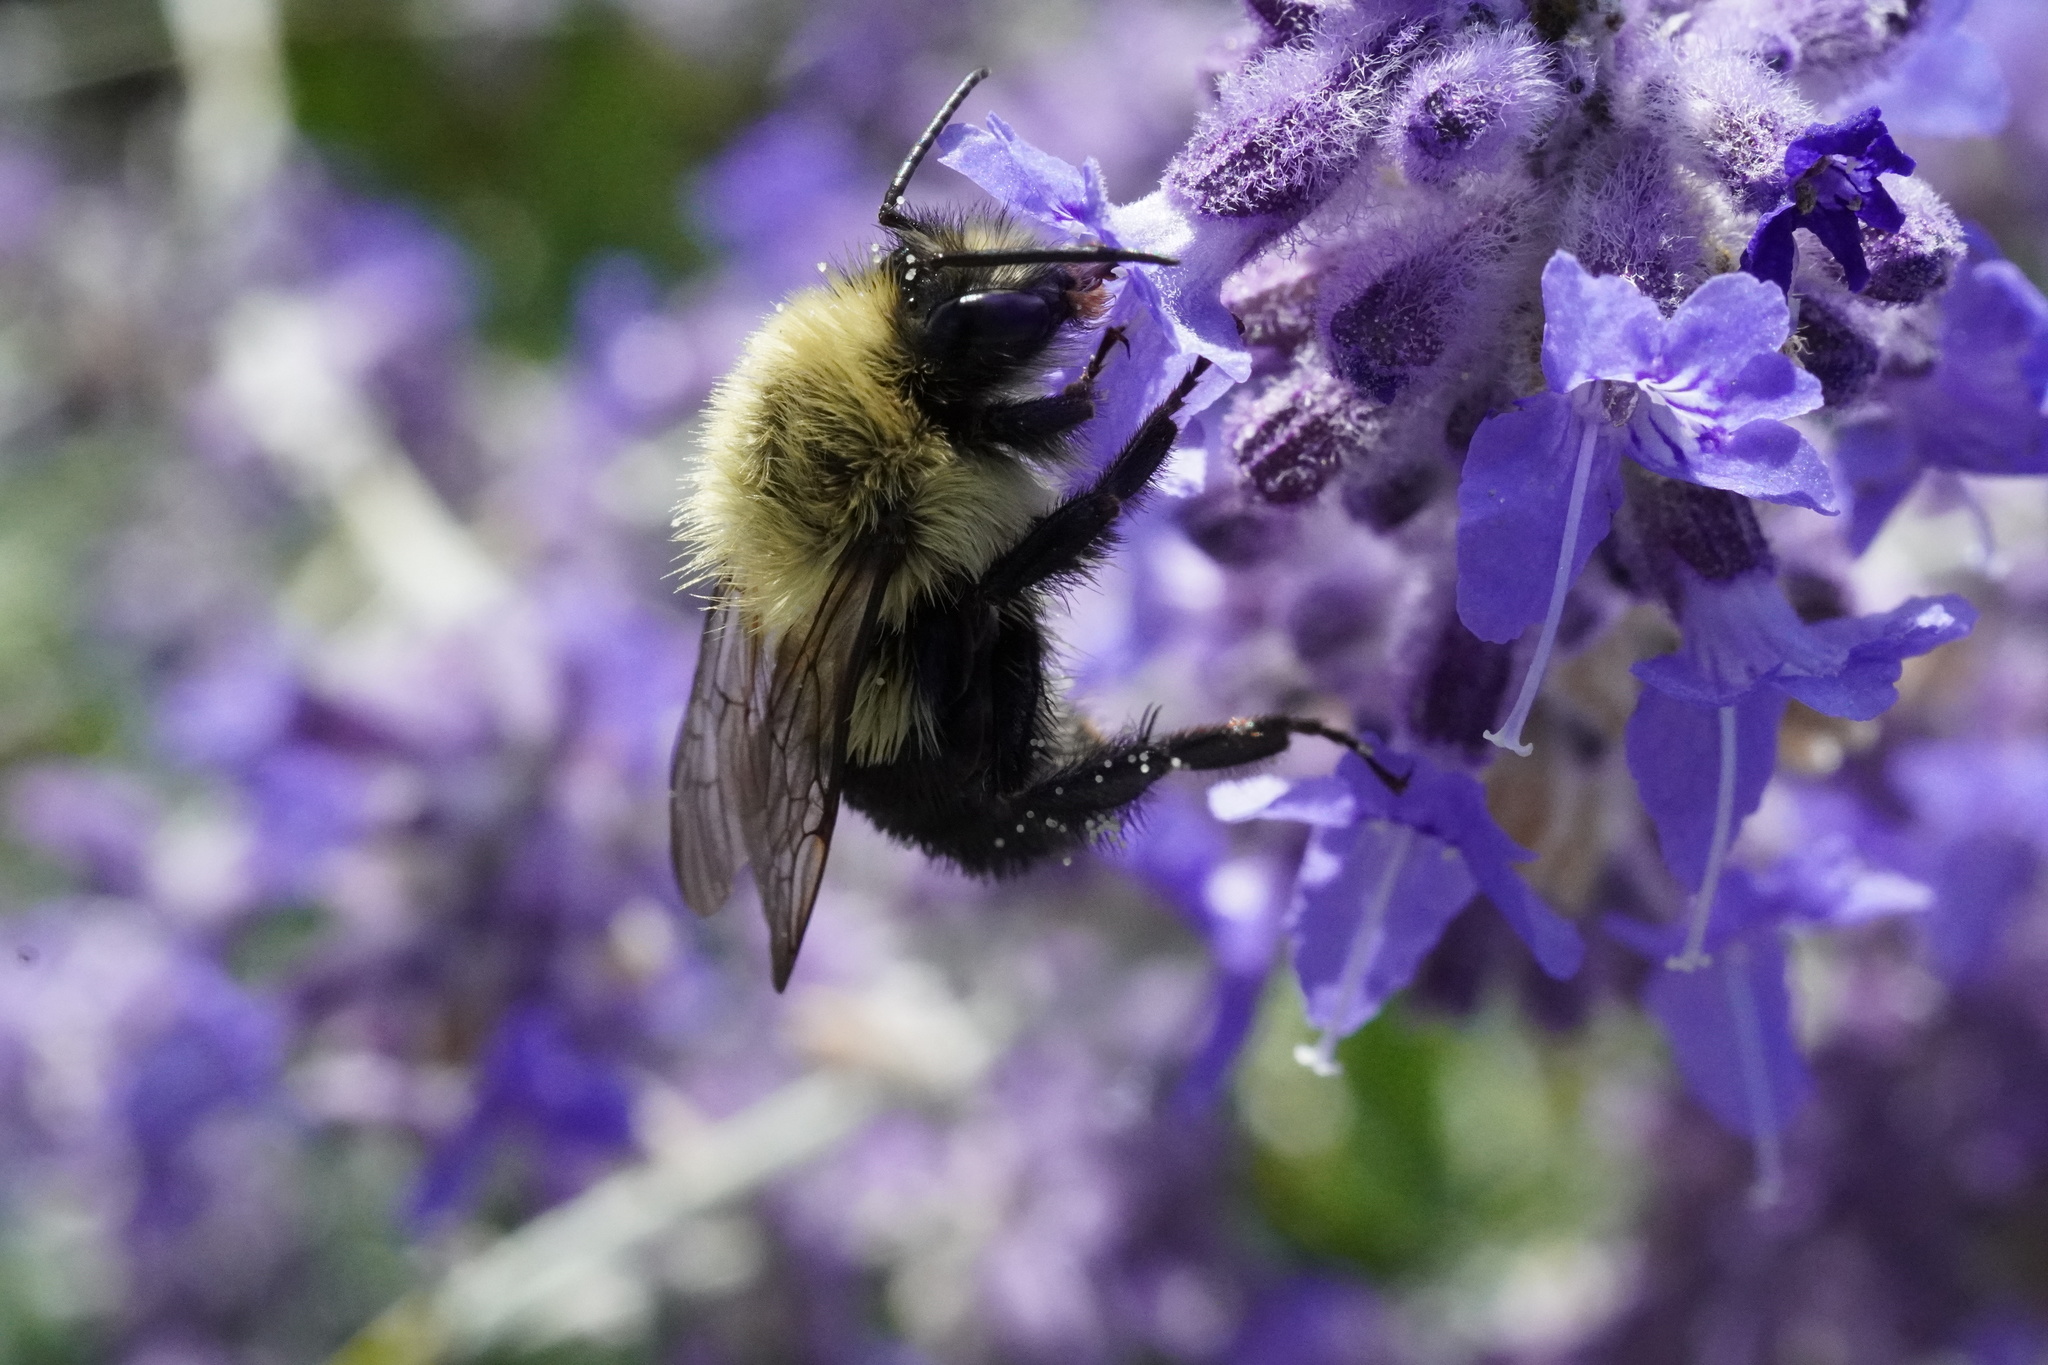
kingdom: Animalia
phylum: Arthropoda
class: Insecta
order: Hymenoptera
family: Apidae
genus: Bombus
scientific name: Bombus impatiens
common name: Common eastern bumble bee
